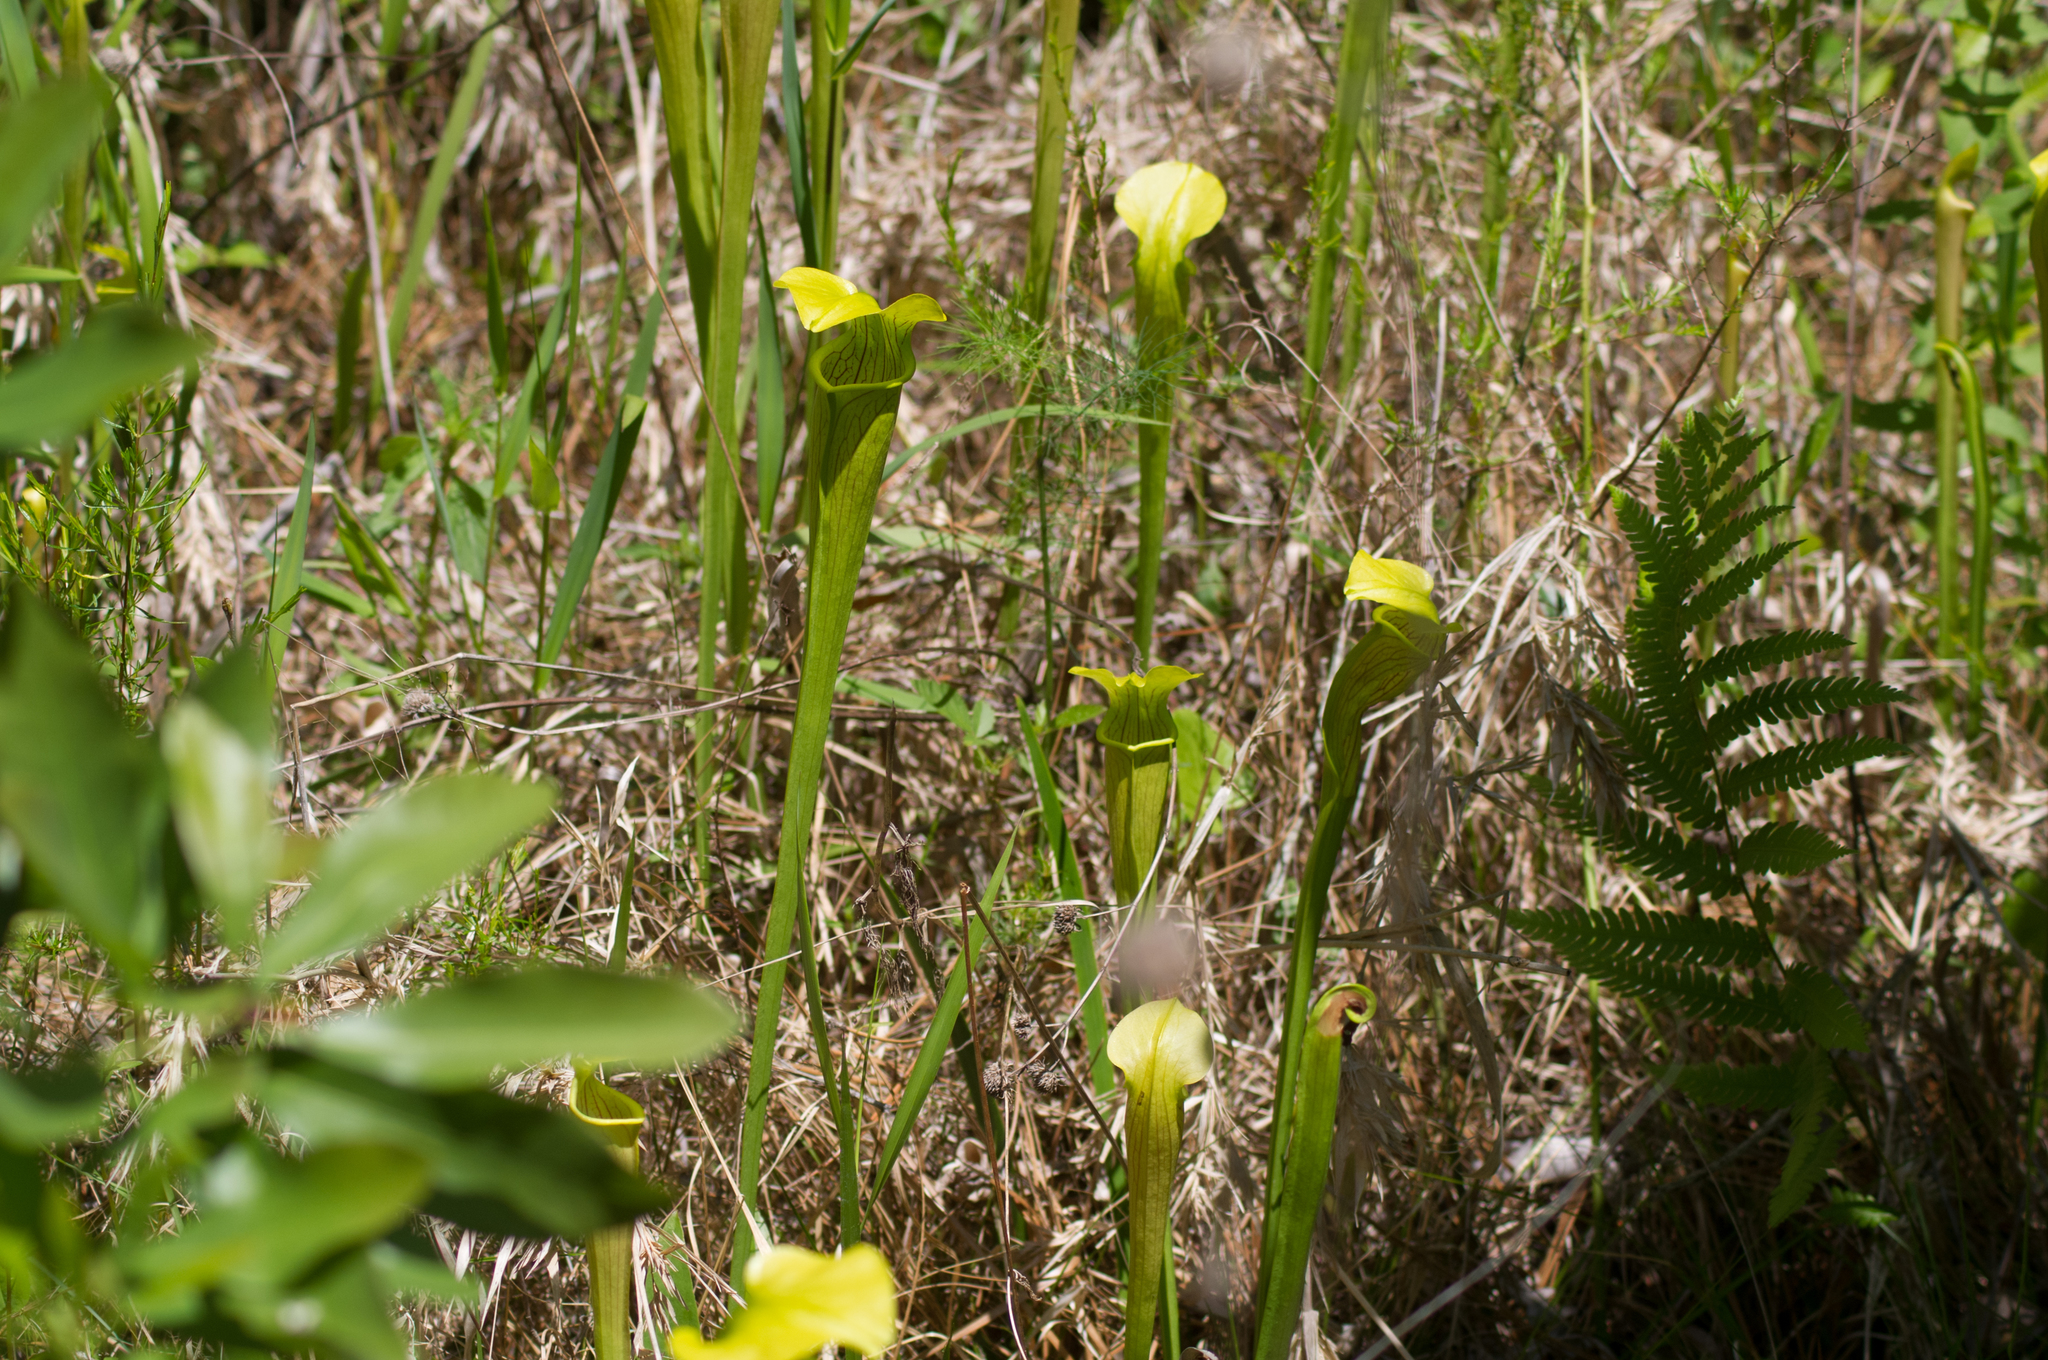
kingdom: Plantae
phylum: Tracheophyta
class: Magnoliopsida
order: Ericales
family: Sarraceniaceae
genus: Sarracenia
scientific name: Sarracenia alata
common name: Yellow trumpets
